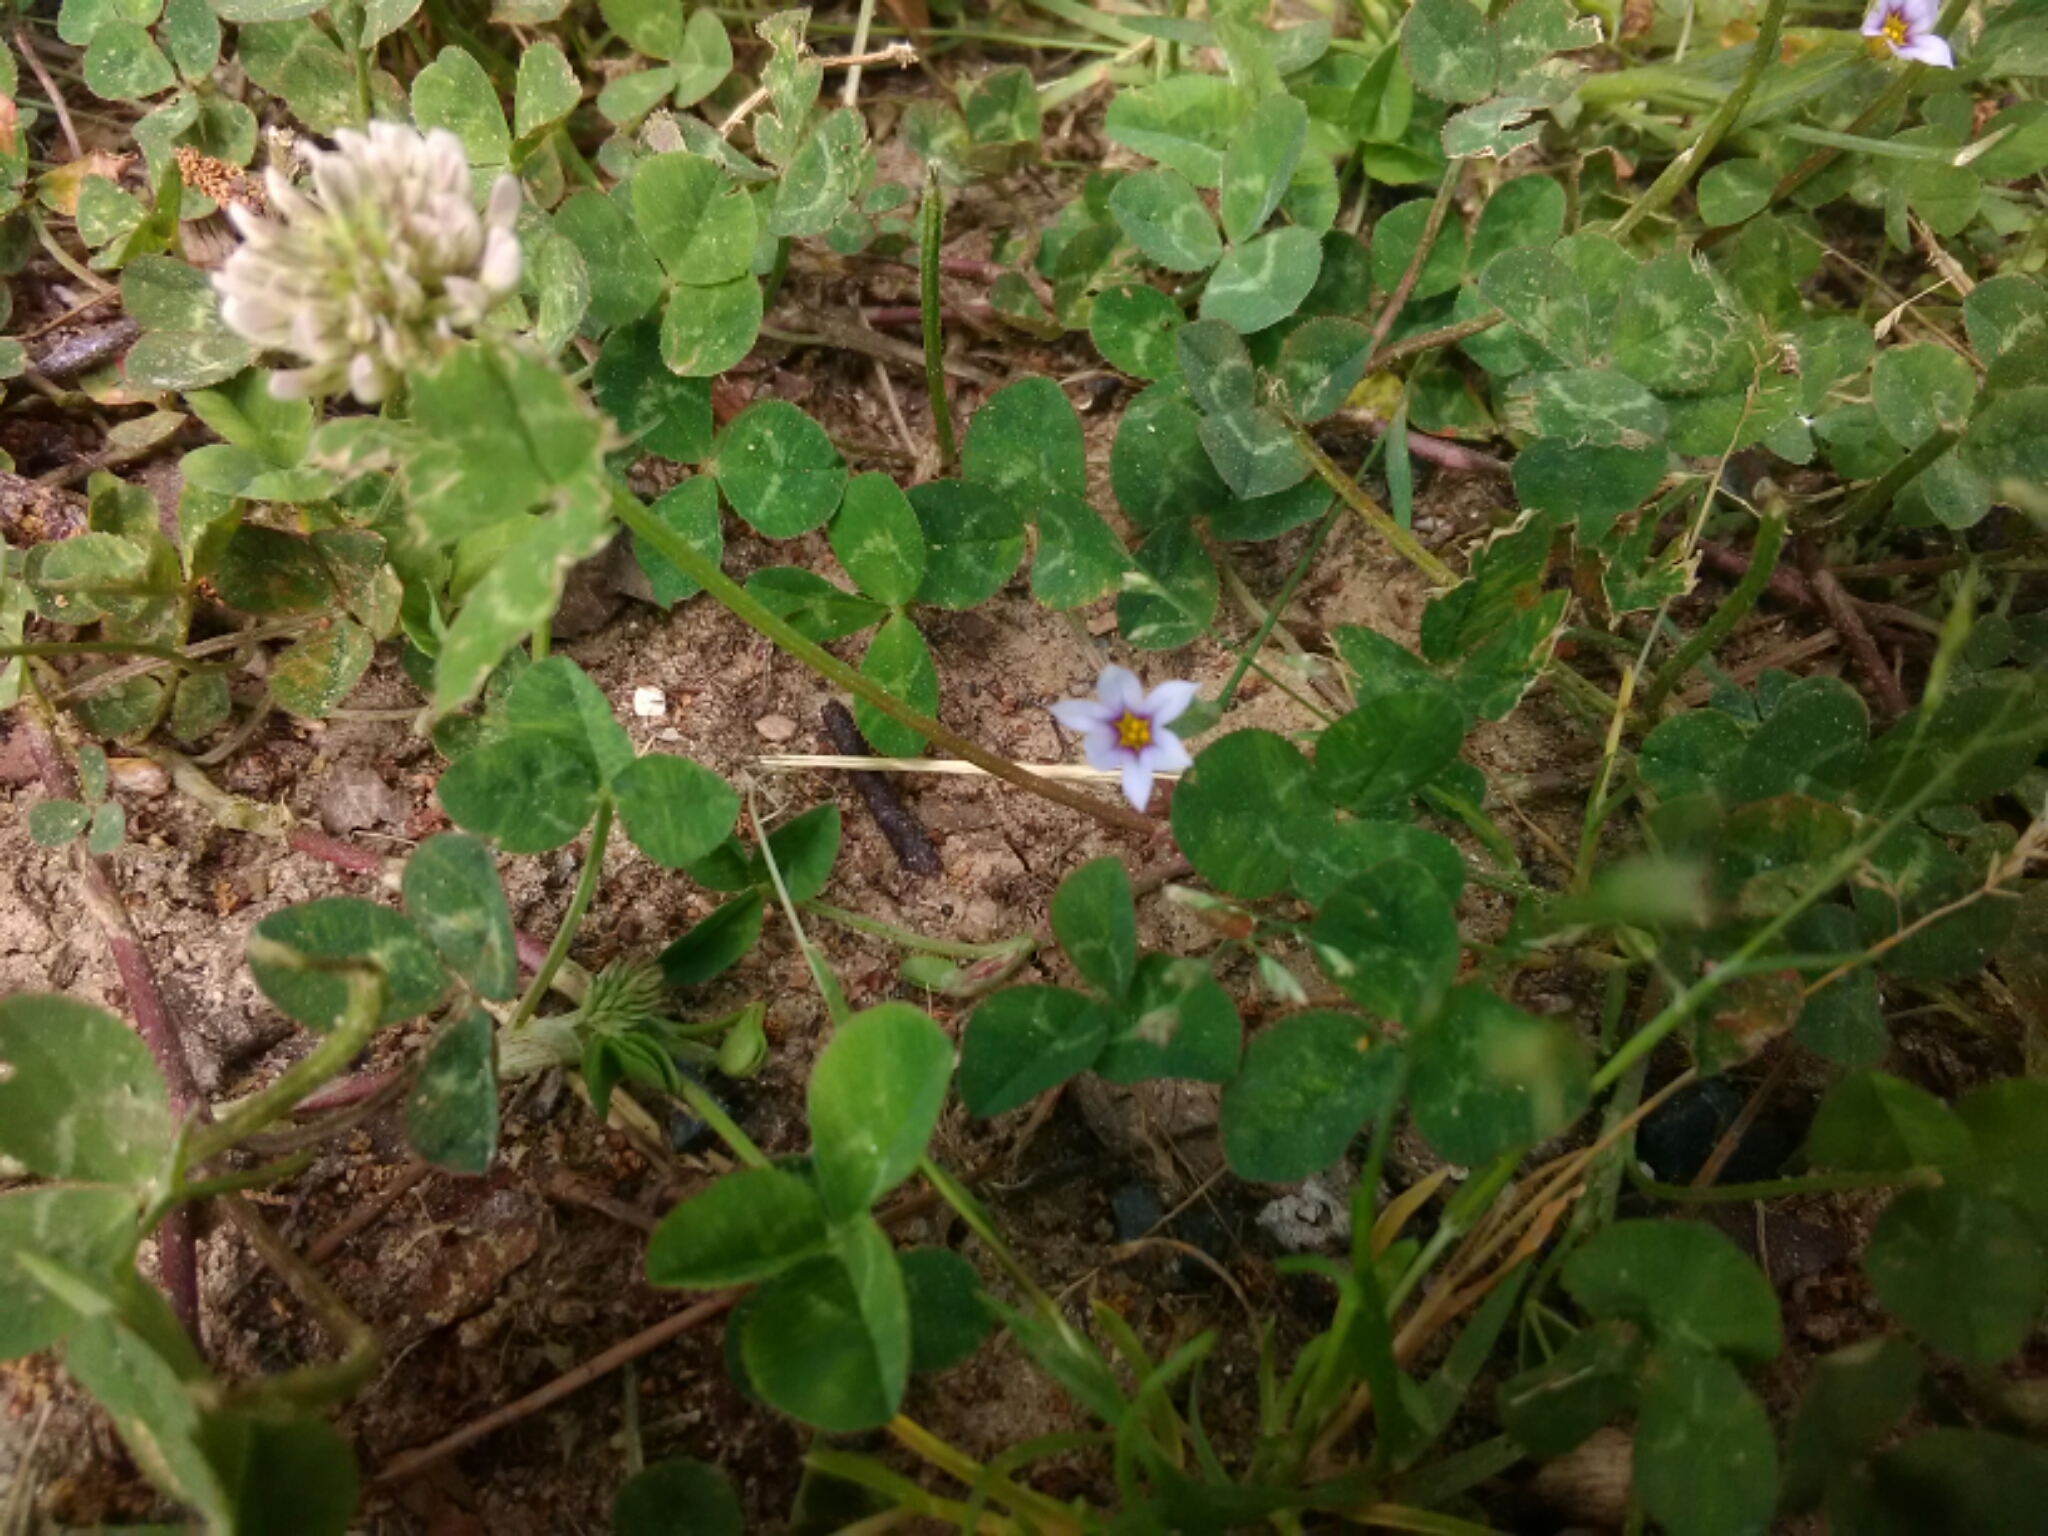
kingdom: Plantae
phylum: Tracheophyta
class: Liliopsida
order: Asparagales
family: Iridaceae
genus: Sisyrinchium
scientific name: Sisyrinchium micranthum
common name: Bermuda pigroot
